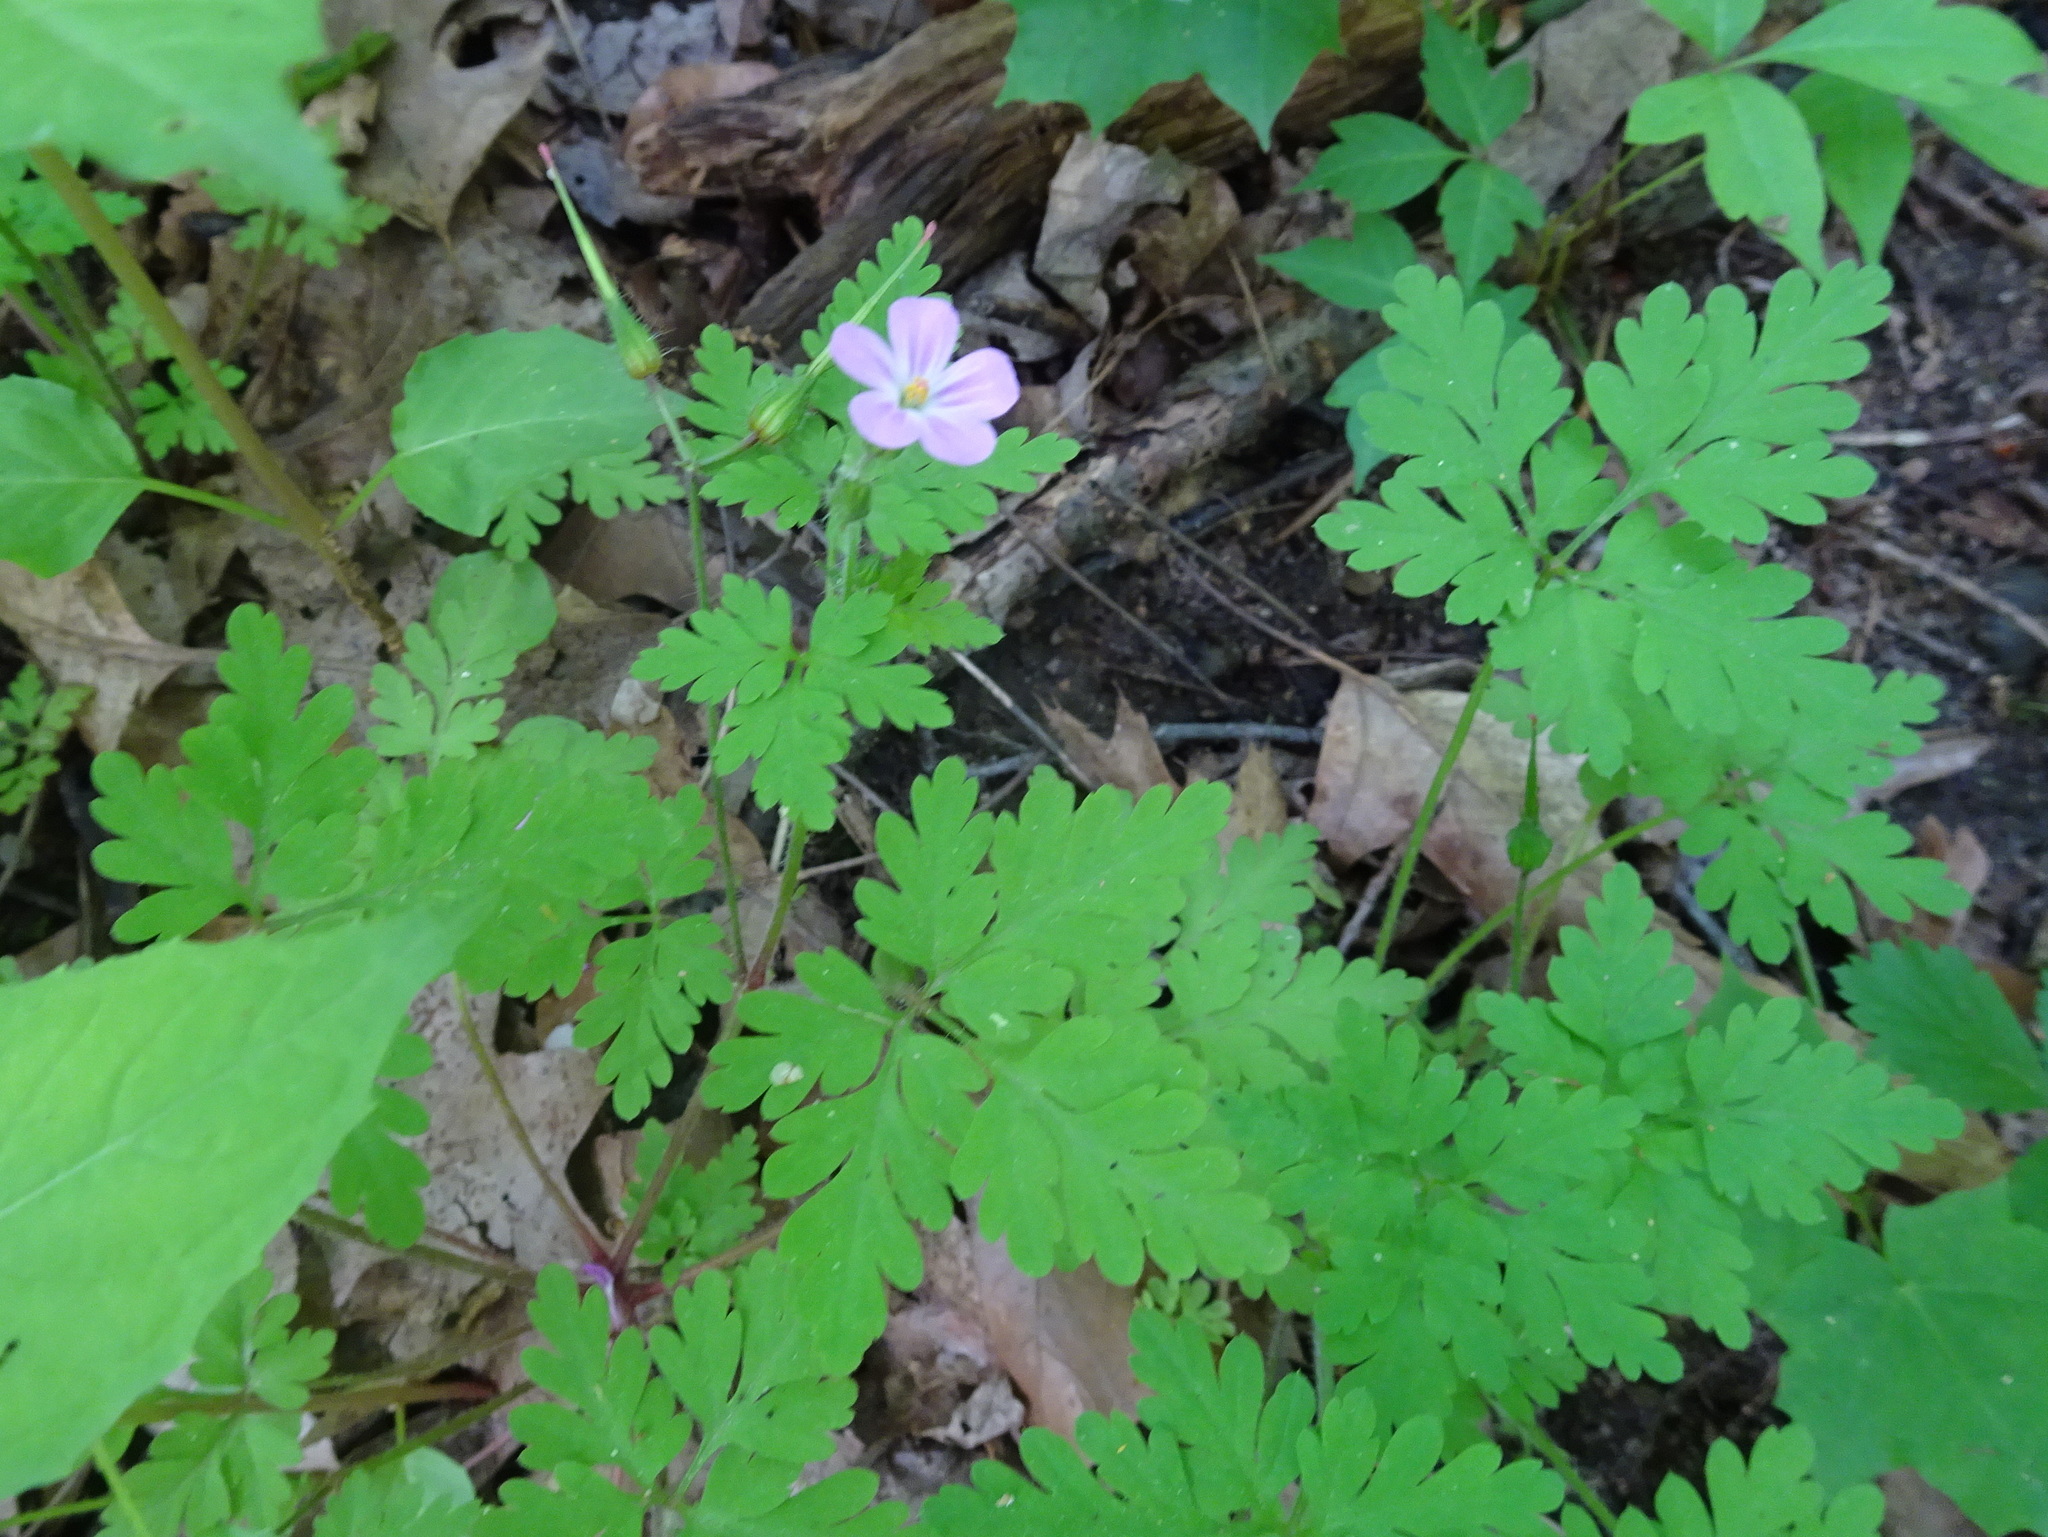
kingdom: Plantae
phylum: Tracheophyta
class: Magnoliopsida
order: Geraniales
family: Geraniaceae
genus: Geranium
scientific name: Geranium robertianum
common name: Herb-robert
